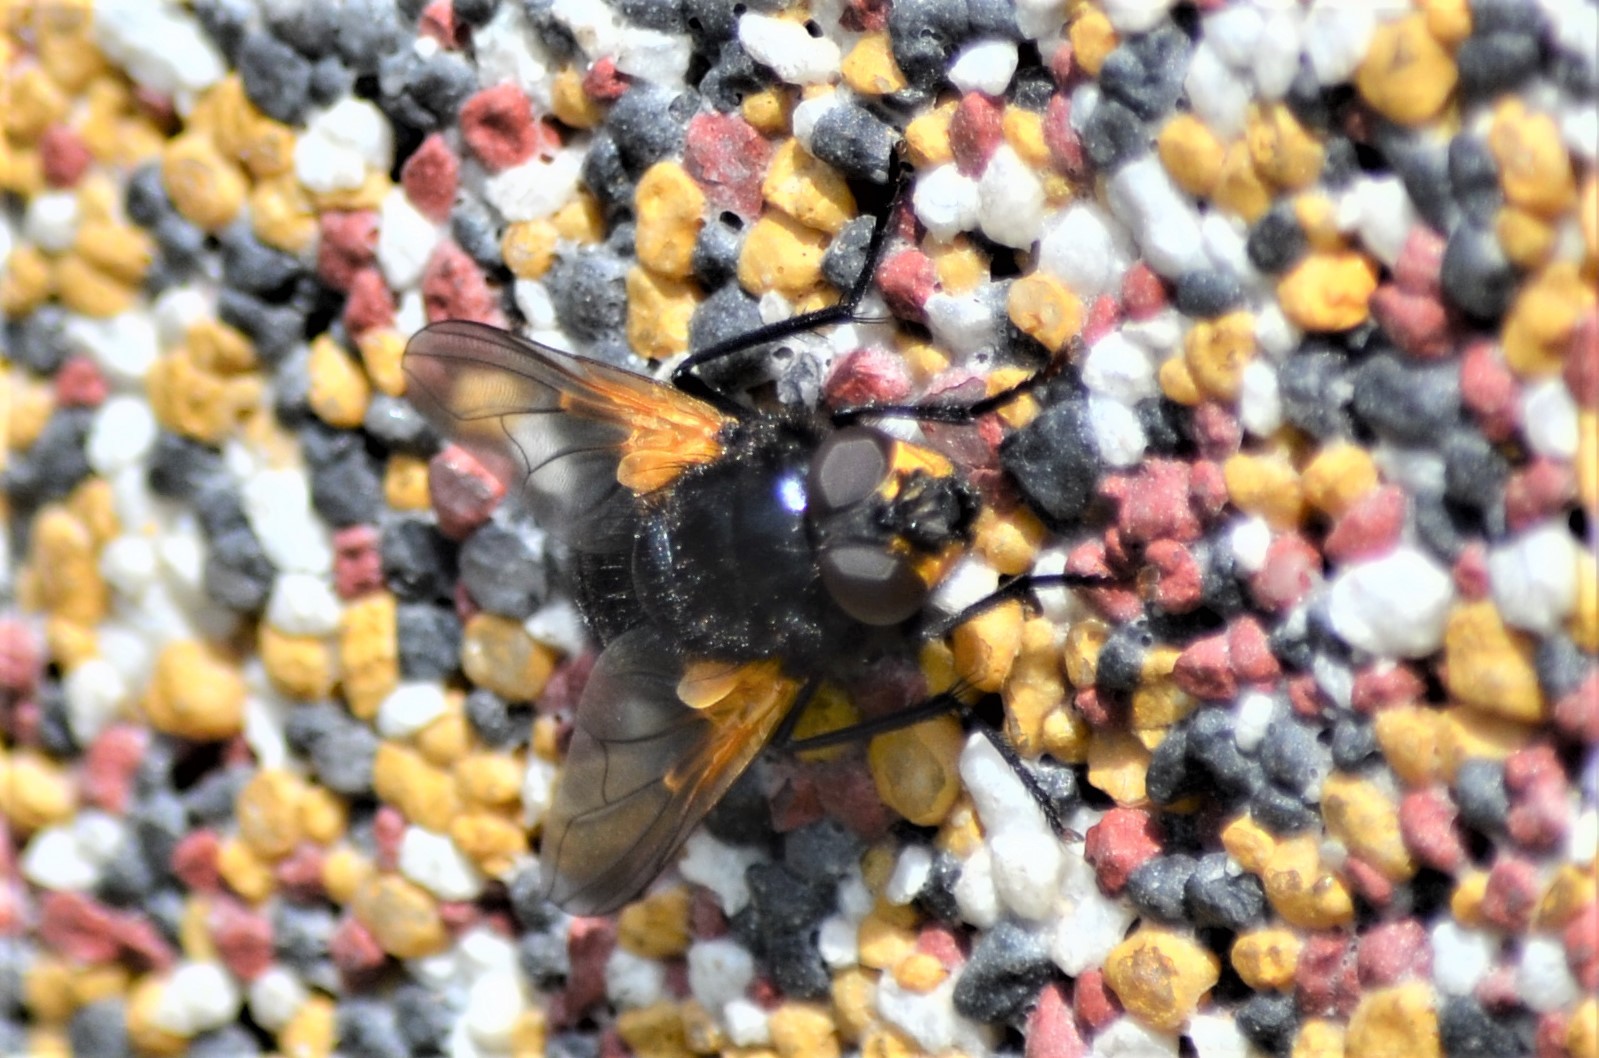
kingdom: Animalia
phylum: Arthropoda
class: Insecta
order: Diptera
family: Muscidae
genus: Mesembrina
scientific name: Mesembrina meridiana
